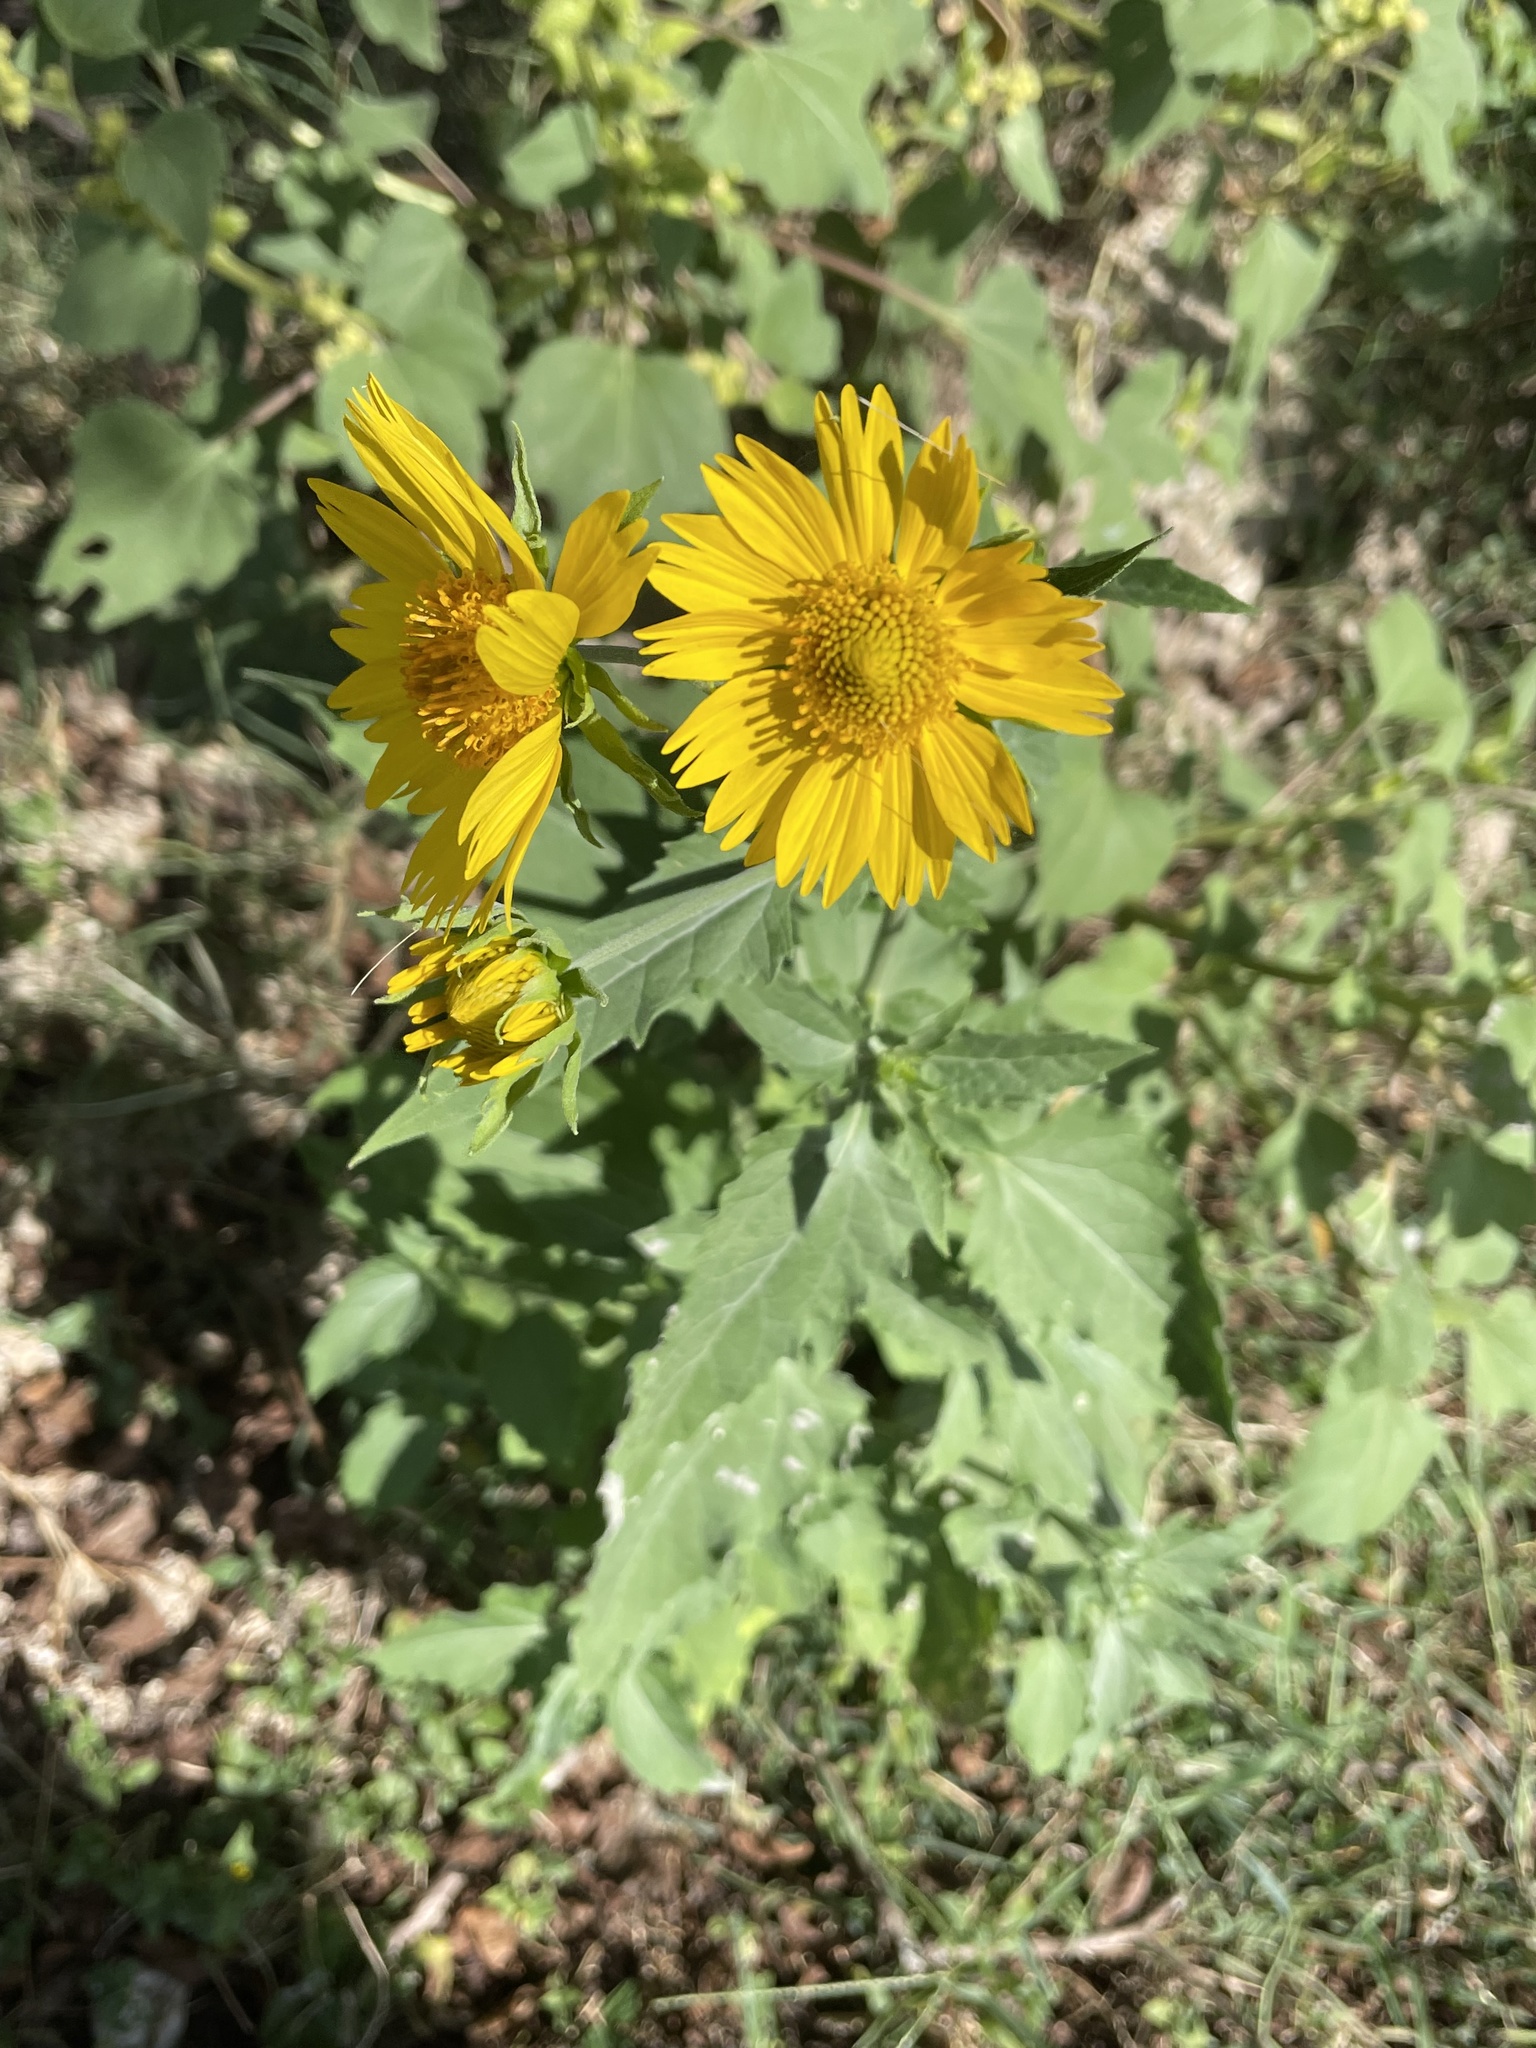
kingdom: Plantae
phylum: Tracheophyta
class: Magnoliopsida
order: Asterales
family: Asteraceae
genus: Verbesina
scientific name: Verbesina encelioides
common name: Golden crownbeard
